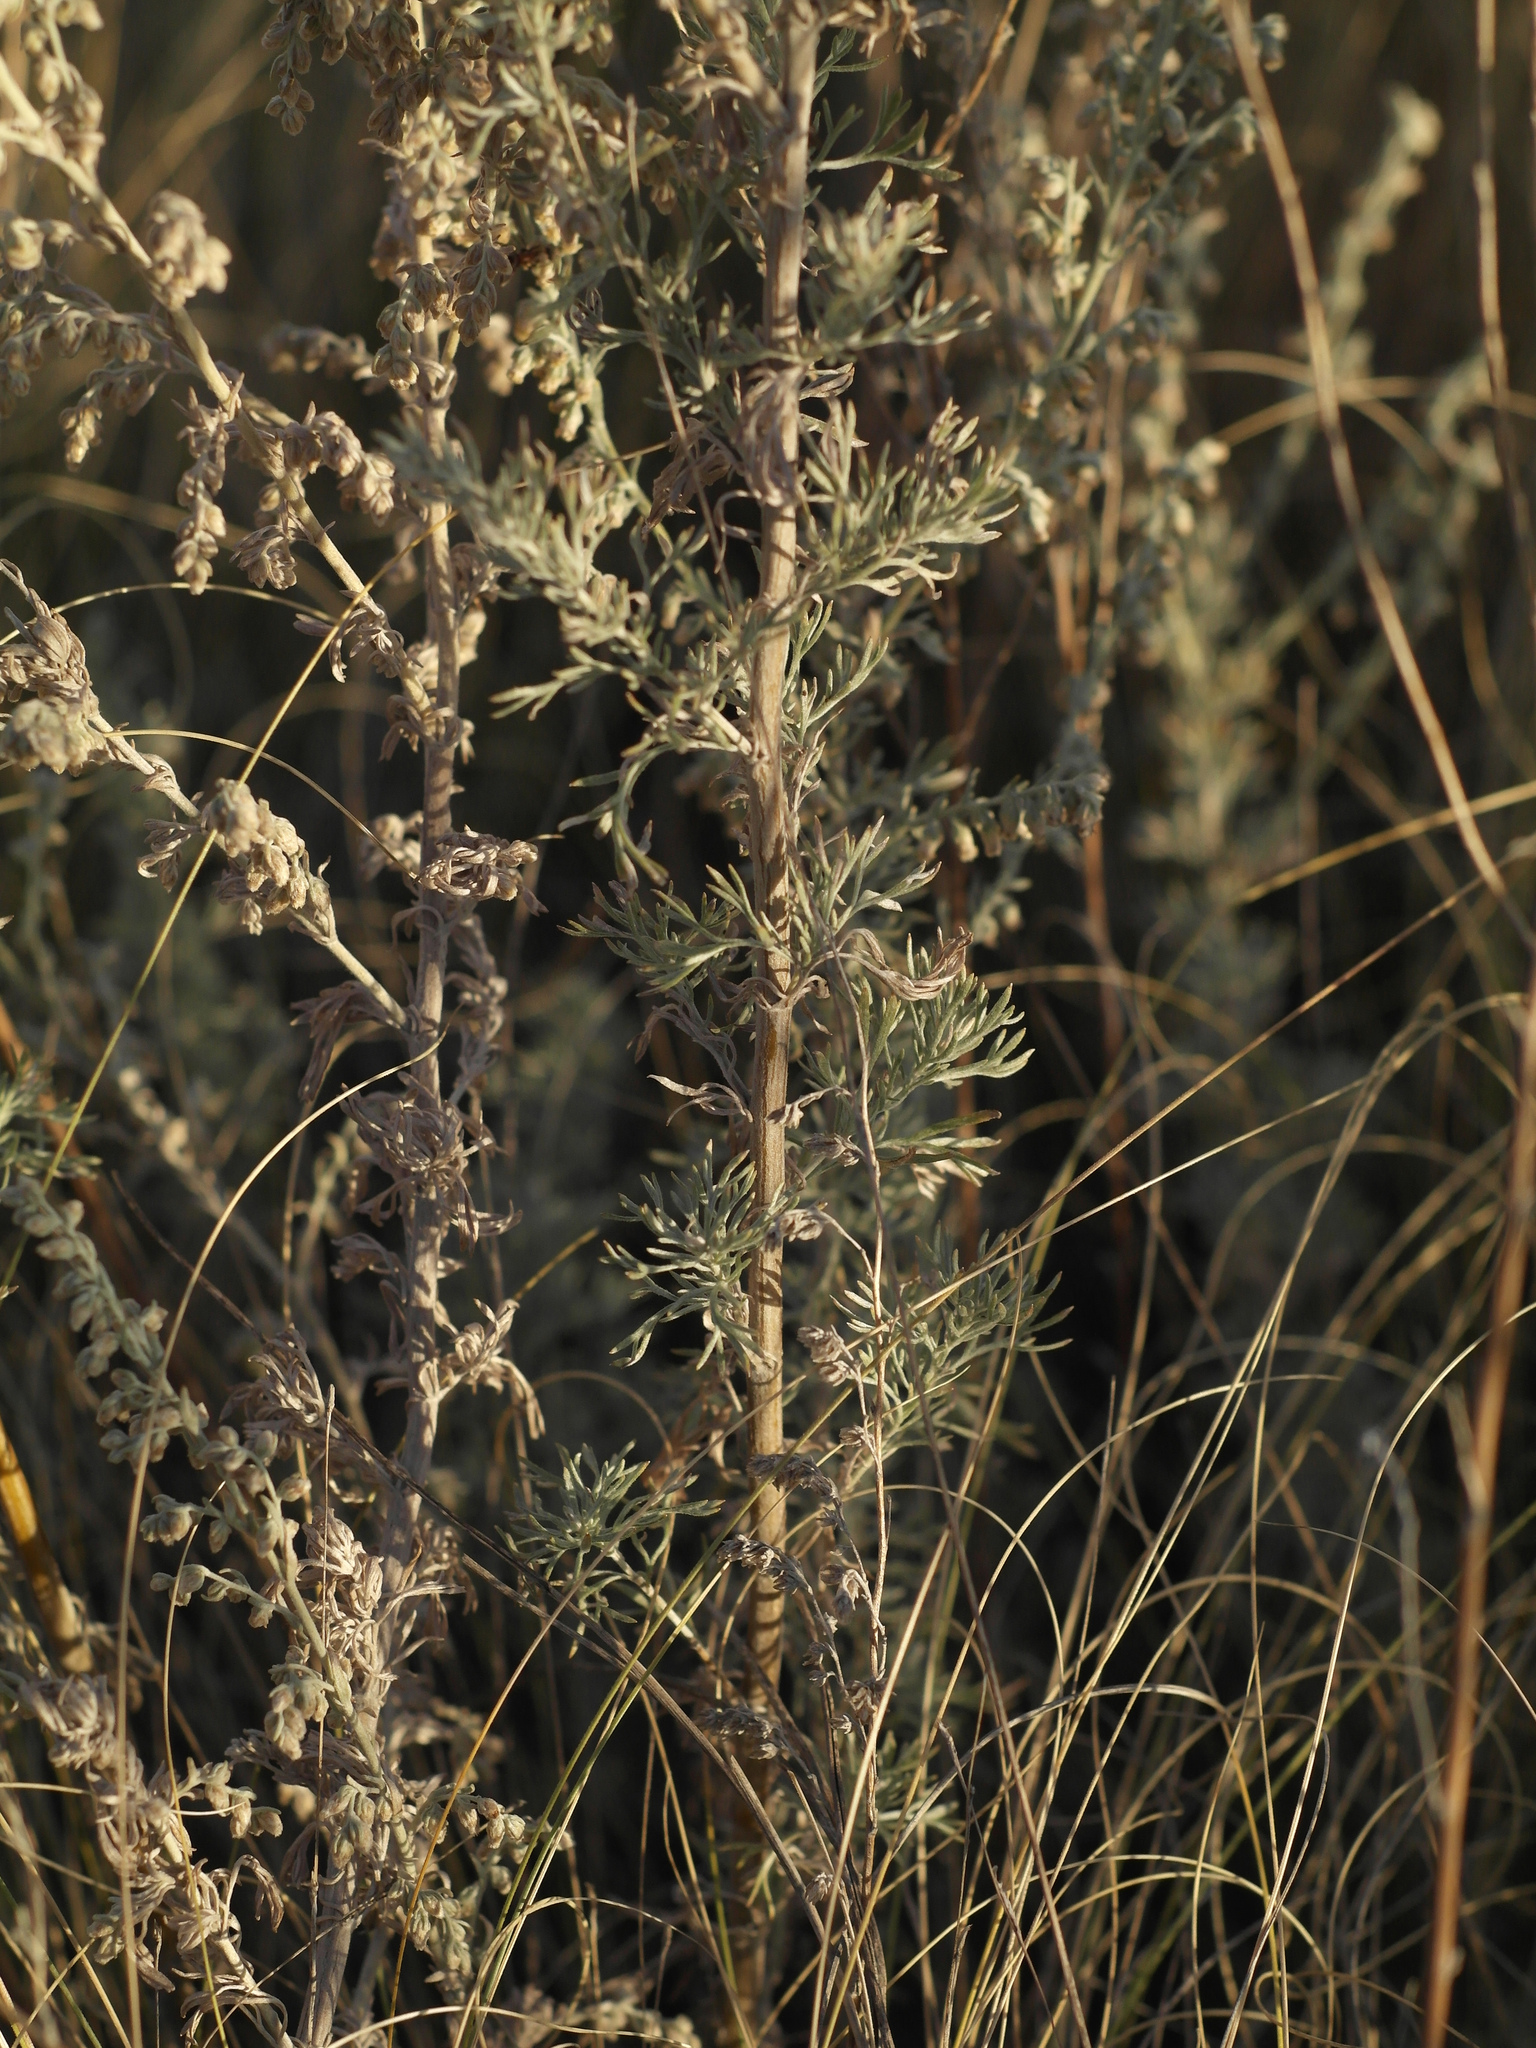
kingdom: Plantae
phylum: Tracheophyta
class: Magnoliopsida
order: Asterales
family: Asteraceae
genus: Artemisia
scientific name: Artemisia austriaca
